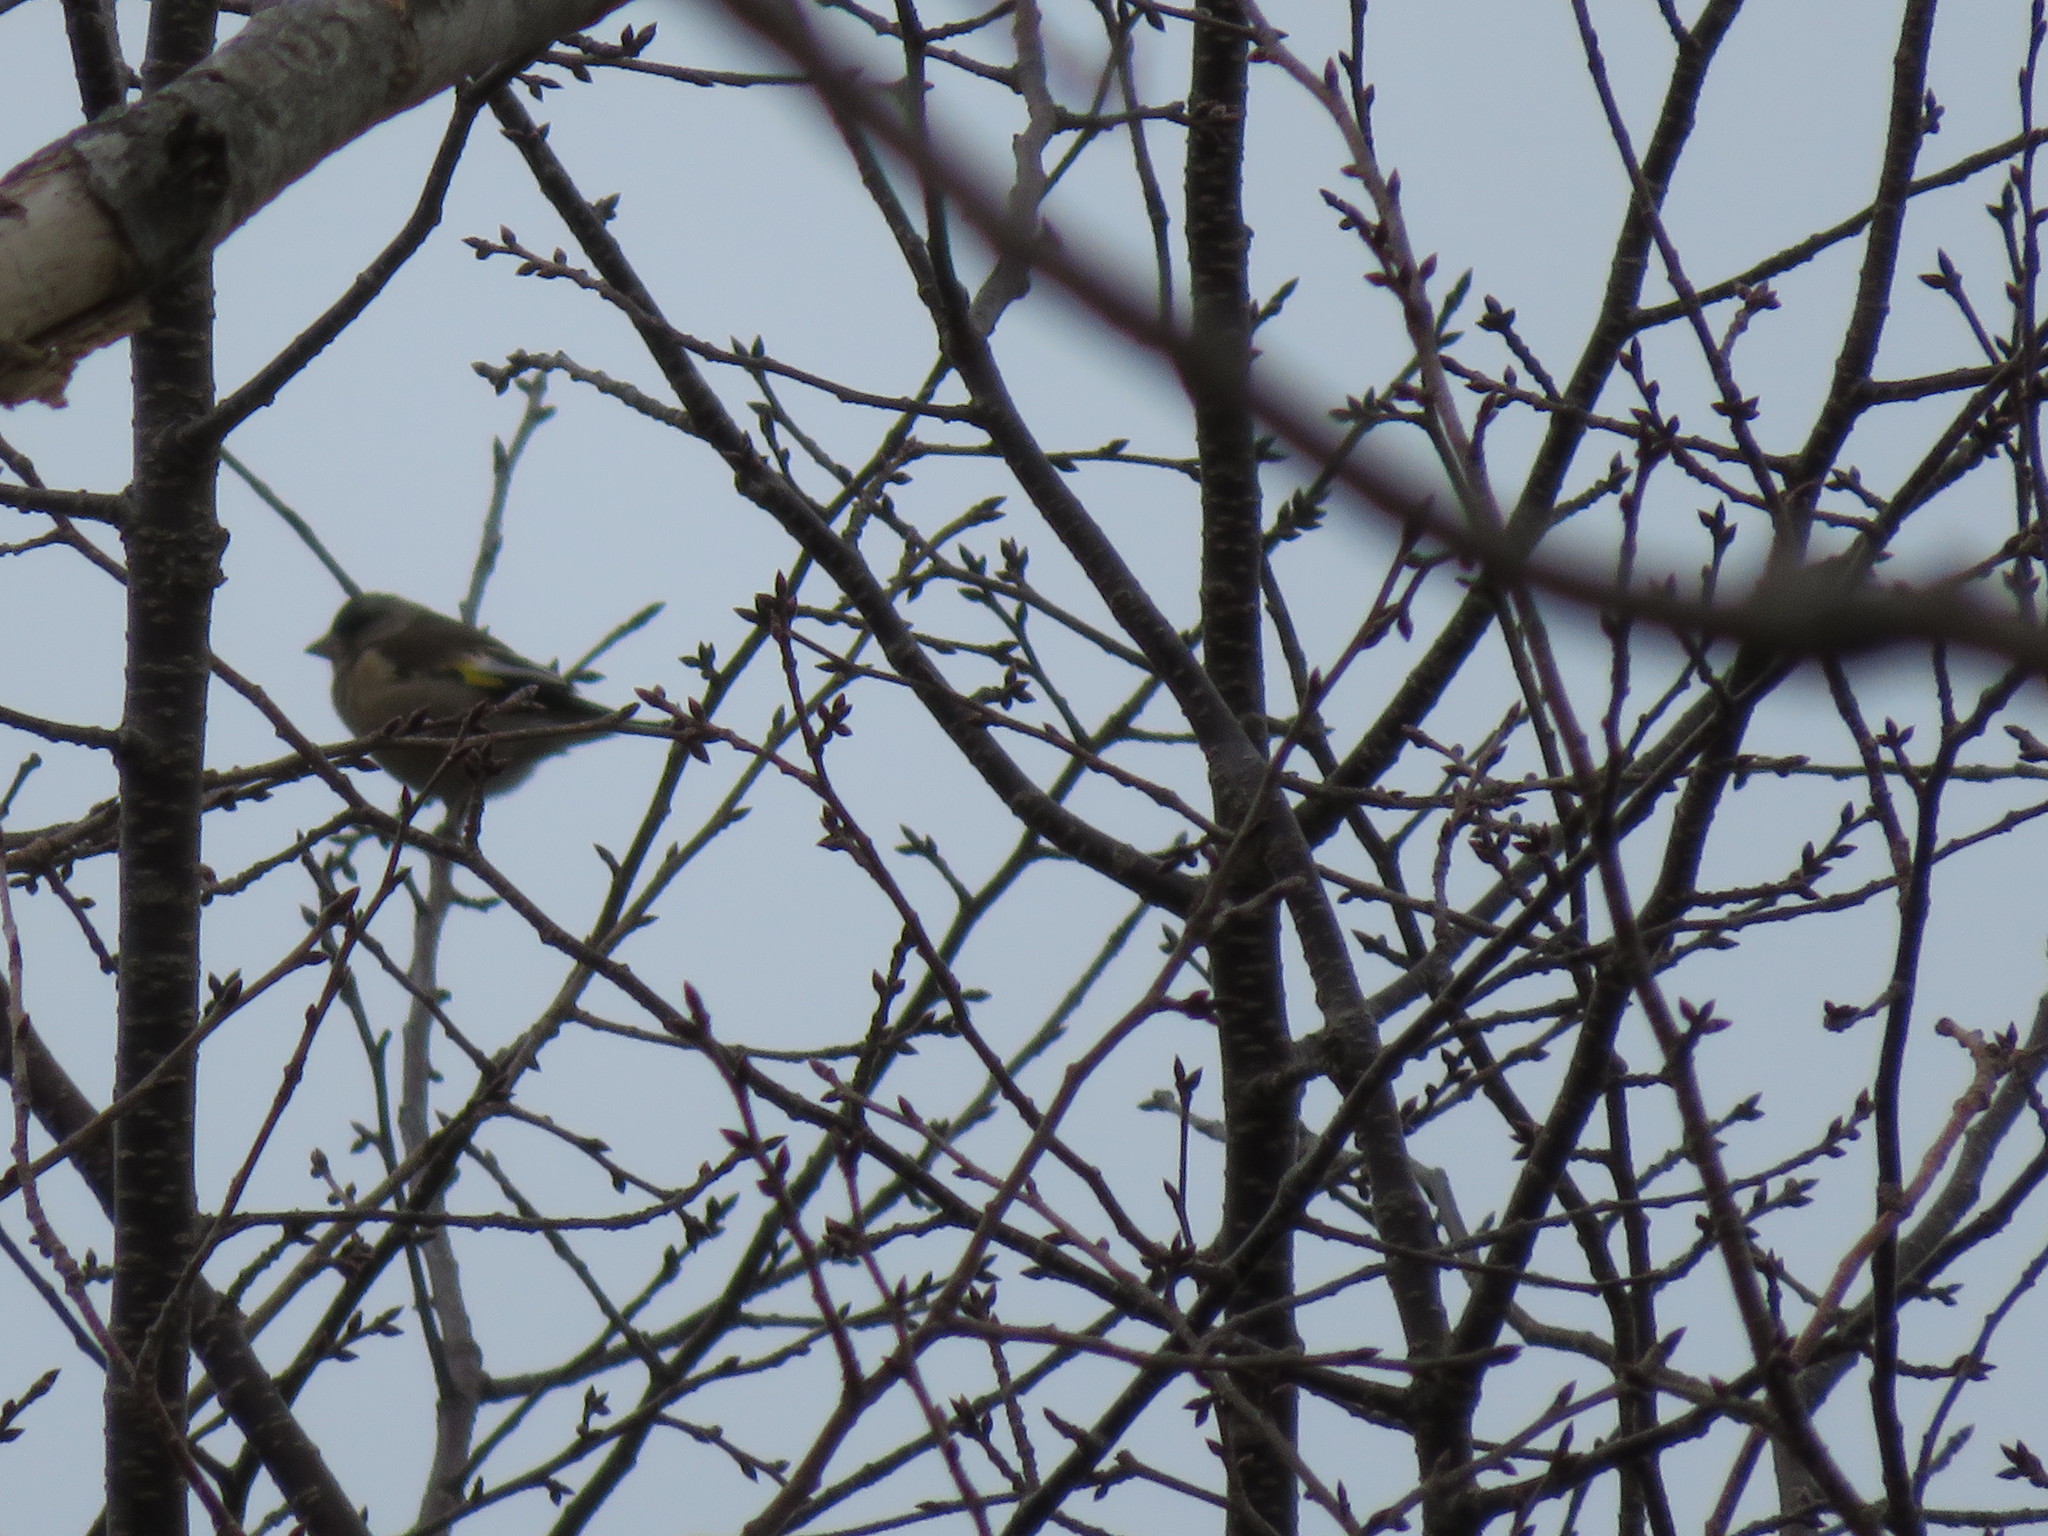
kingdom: Plantae
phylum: Tracheophyta
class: Liliopsida
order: Poales
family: Poaceae
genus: Chloris
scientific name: Chloris sinica
